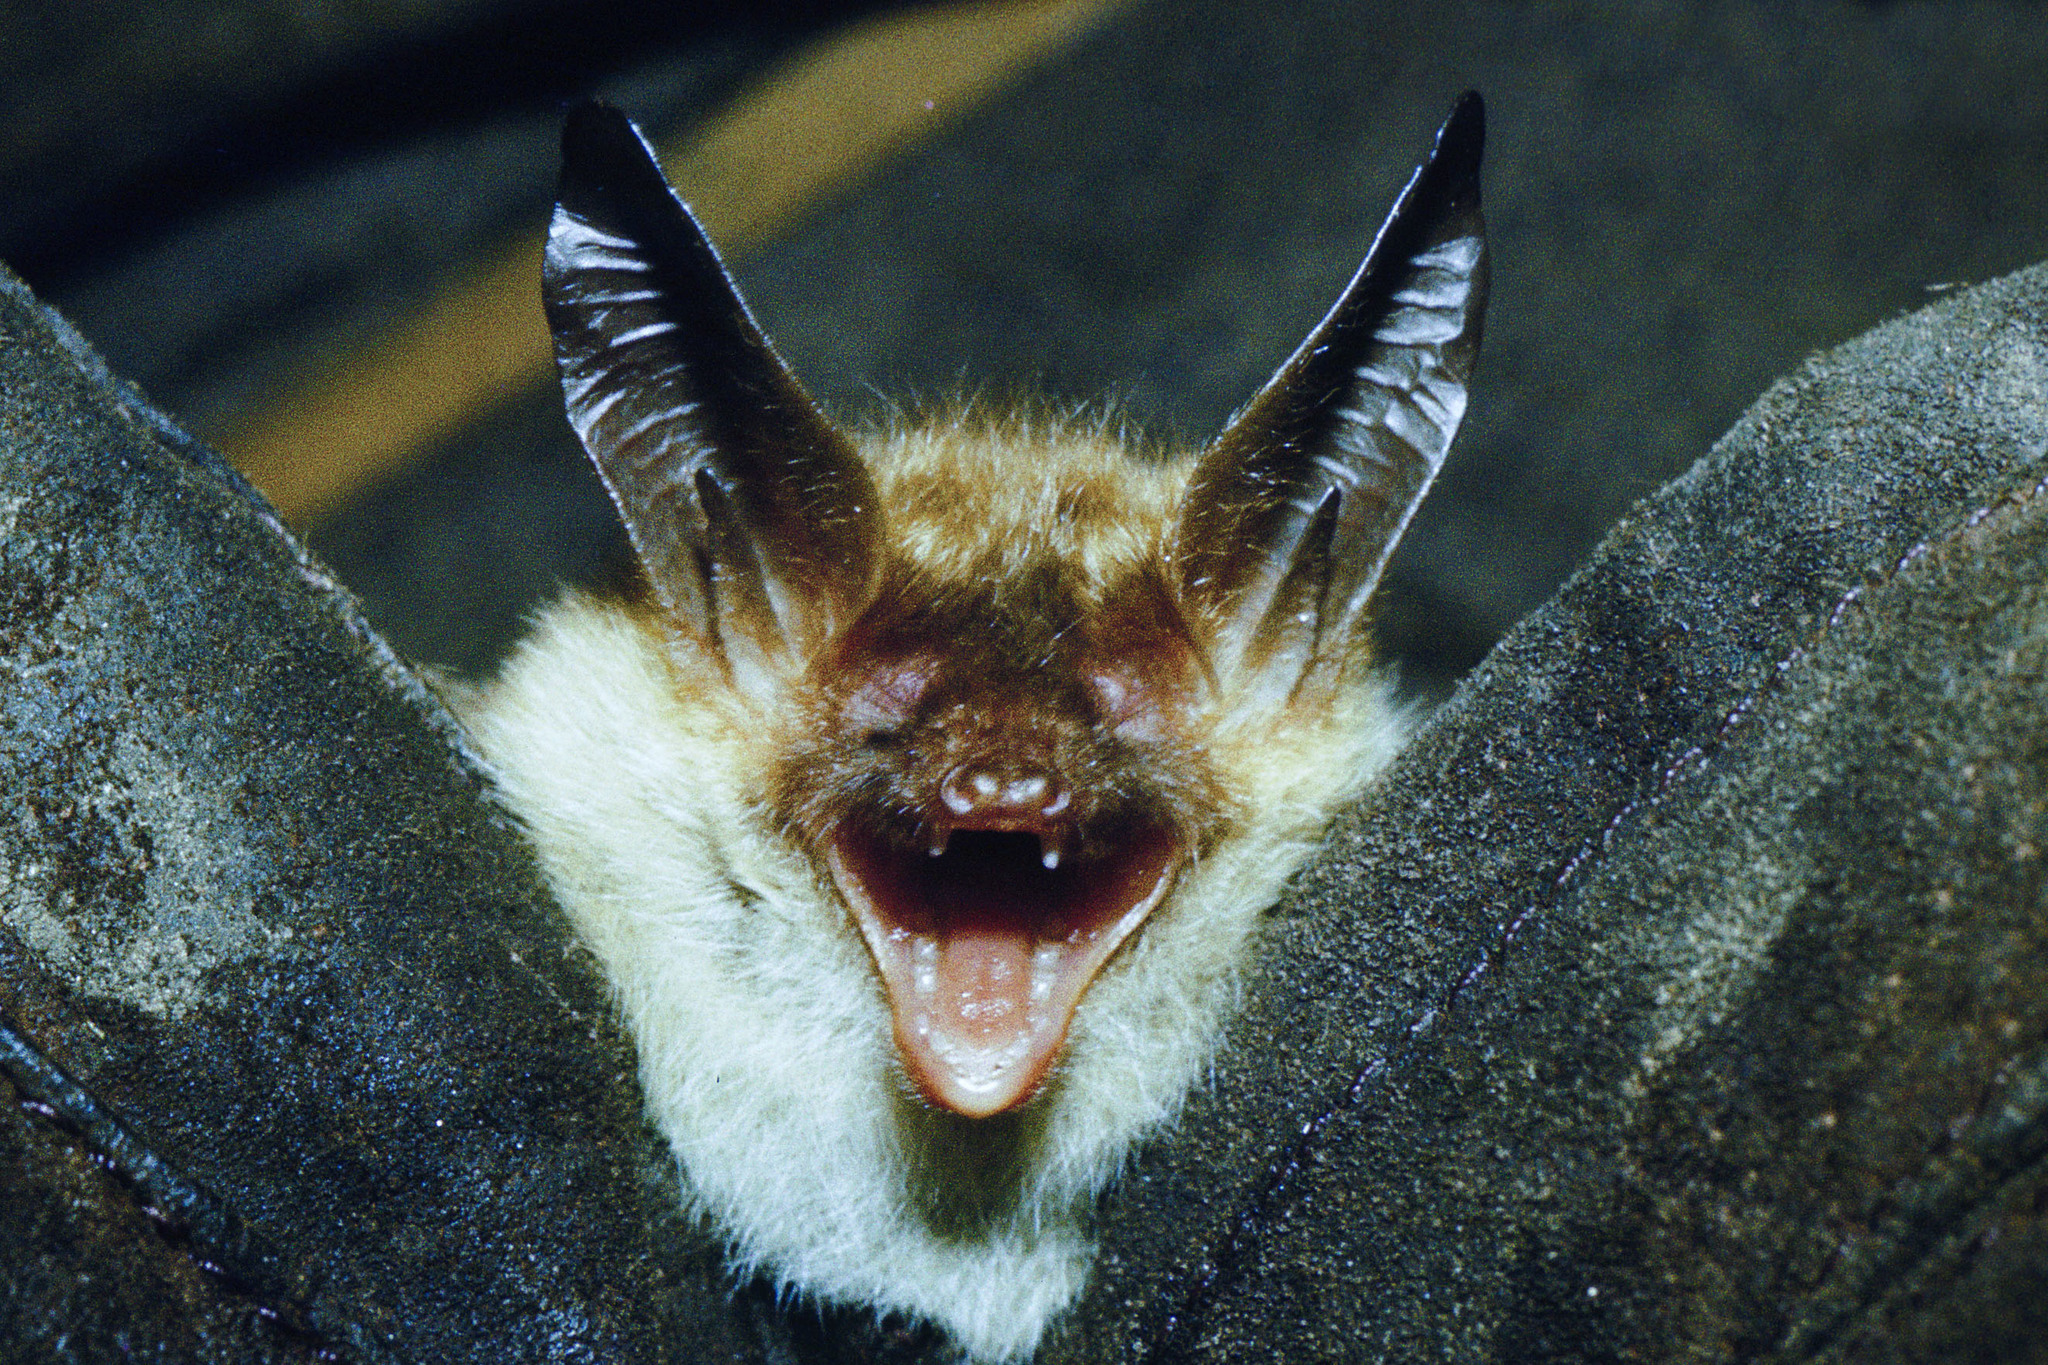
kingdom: Animalia
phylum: Chordata
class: Mammalia
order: Chiroptera
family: Vespertilionidae
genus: Myotis
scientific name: Myotis bechsteinii
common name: Bechstein's myotis
